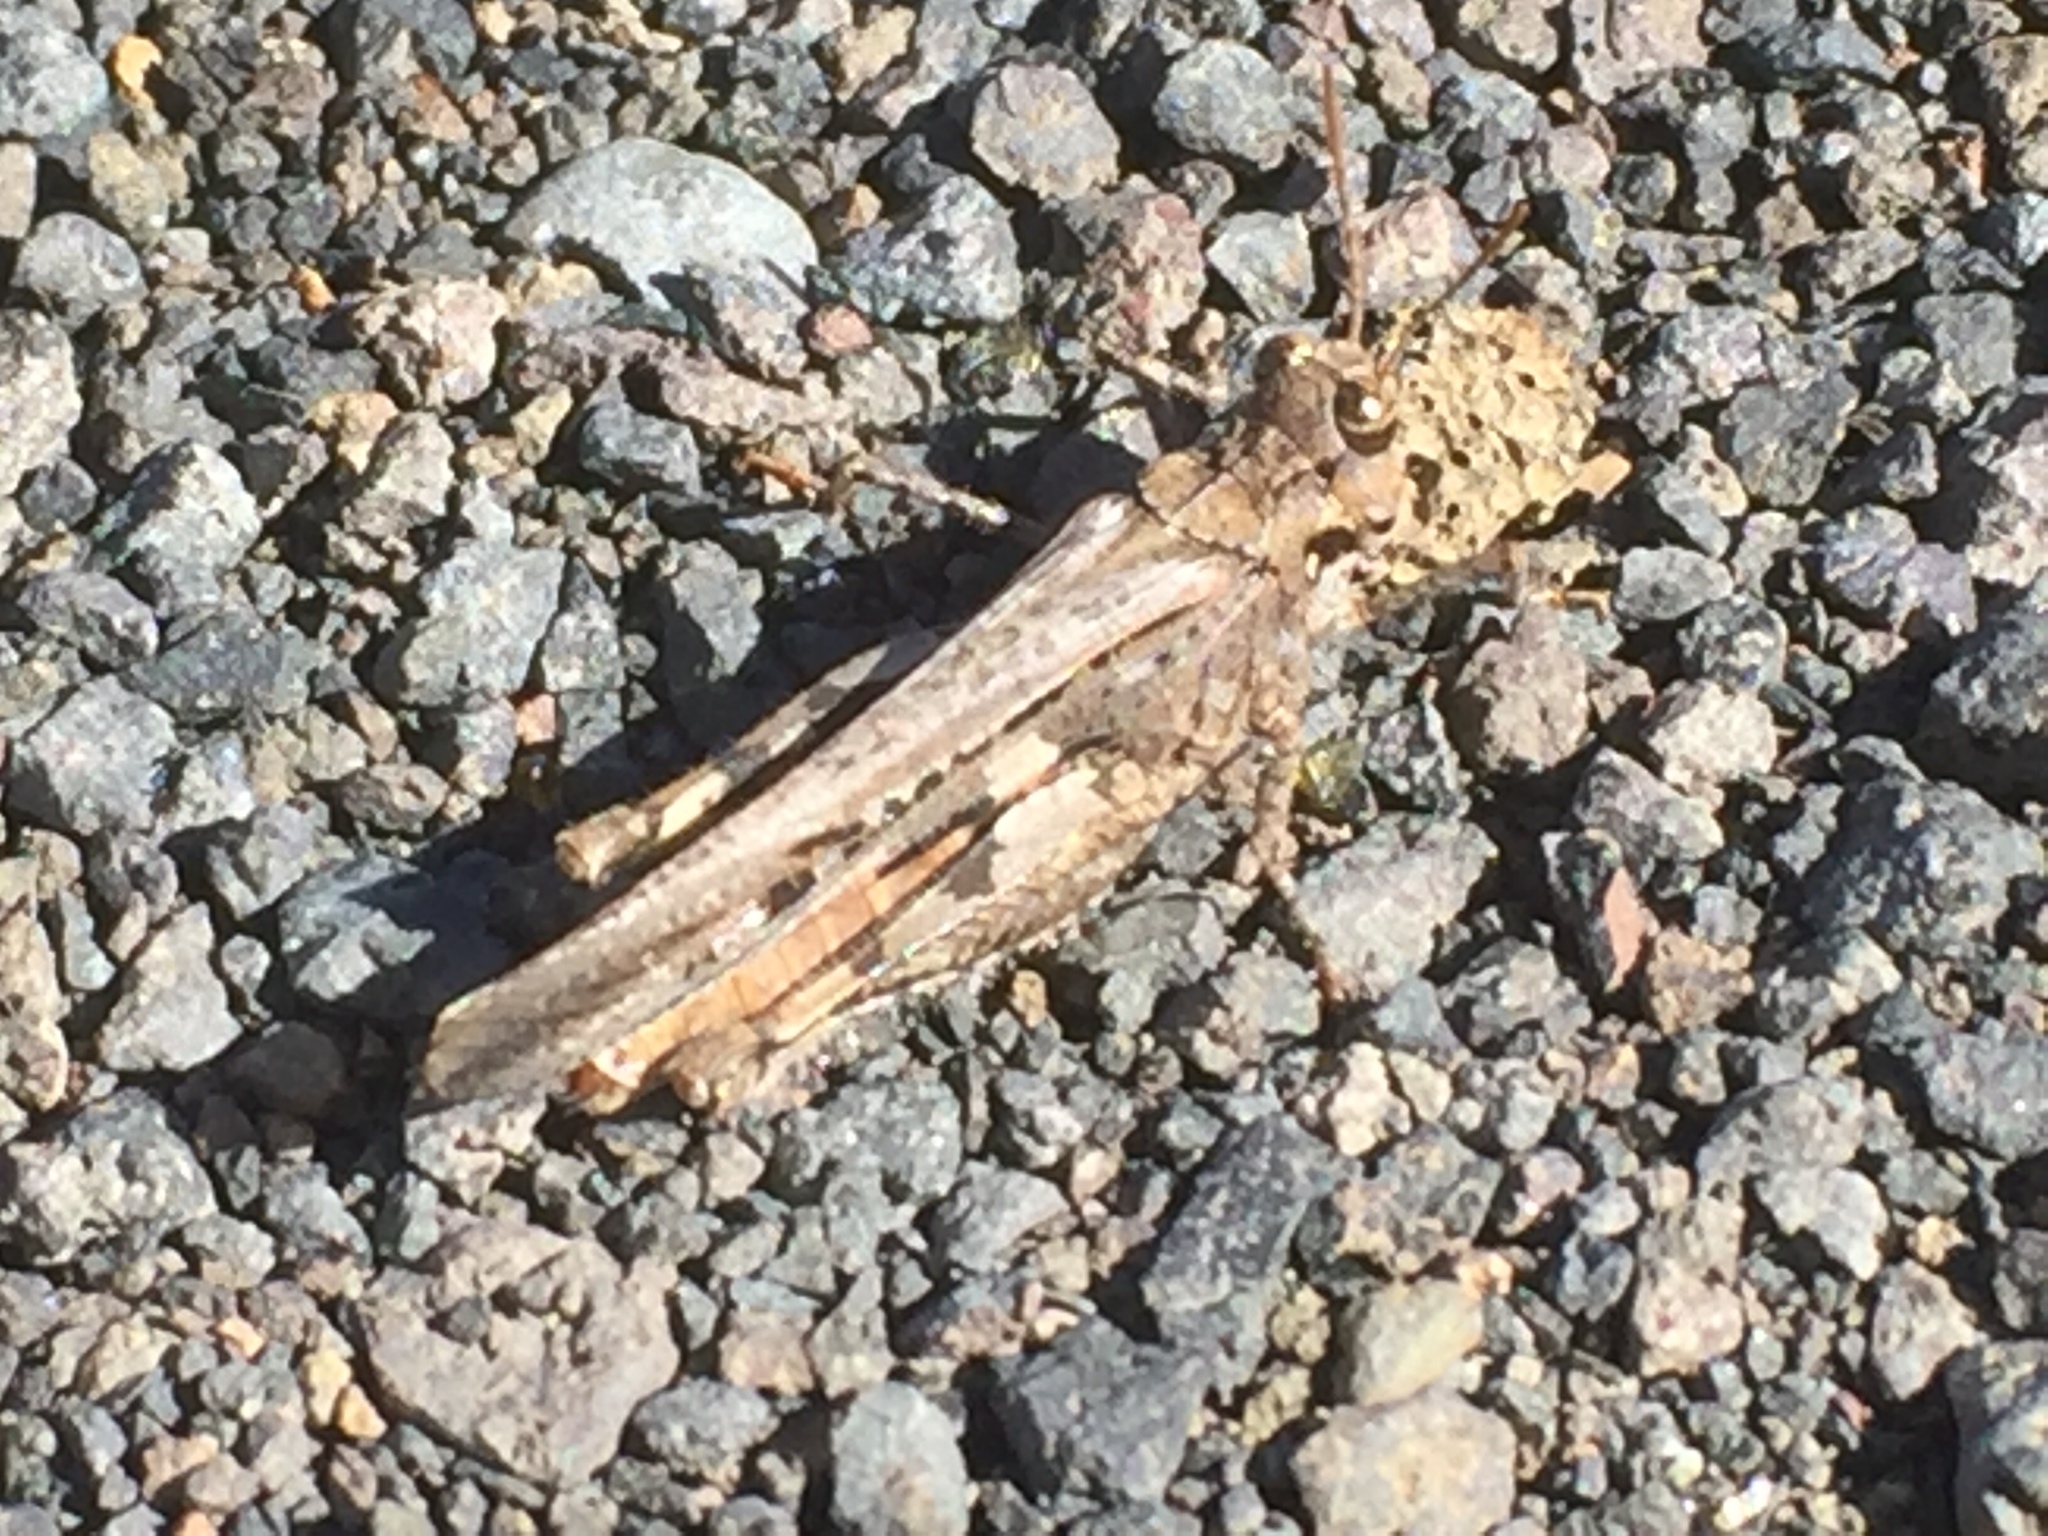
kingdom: Animalia
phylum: Arthropoda
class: Insecta
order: Orthoptera
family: Acrididae
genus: Acrotylus
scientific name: Acrotylus insubricus
